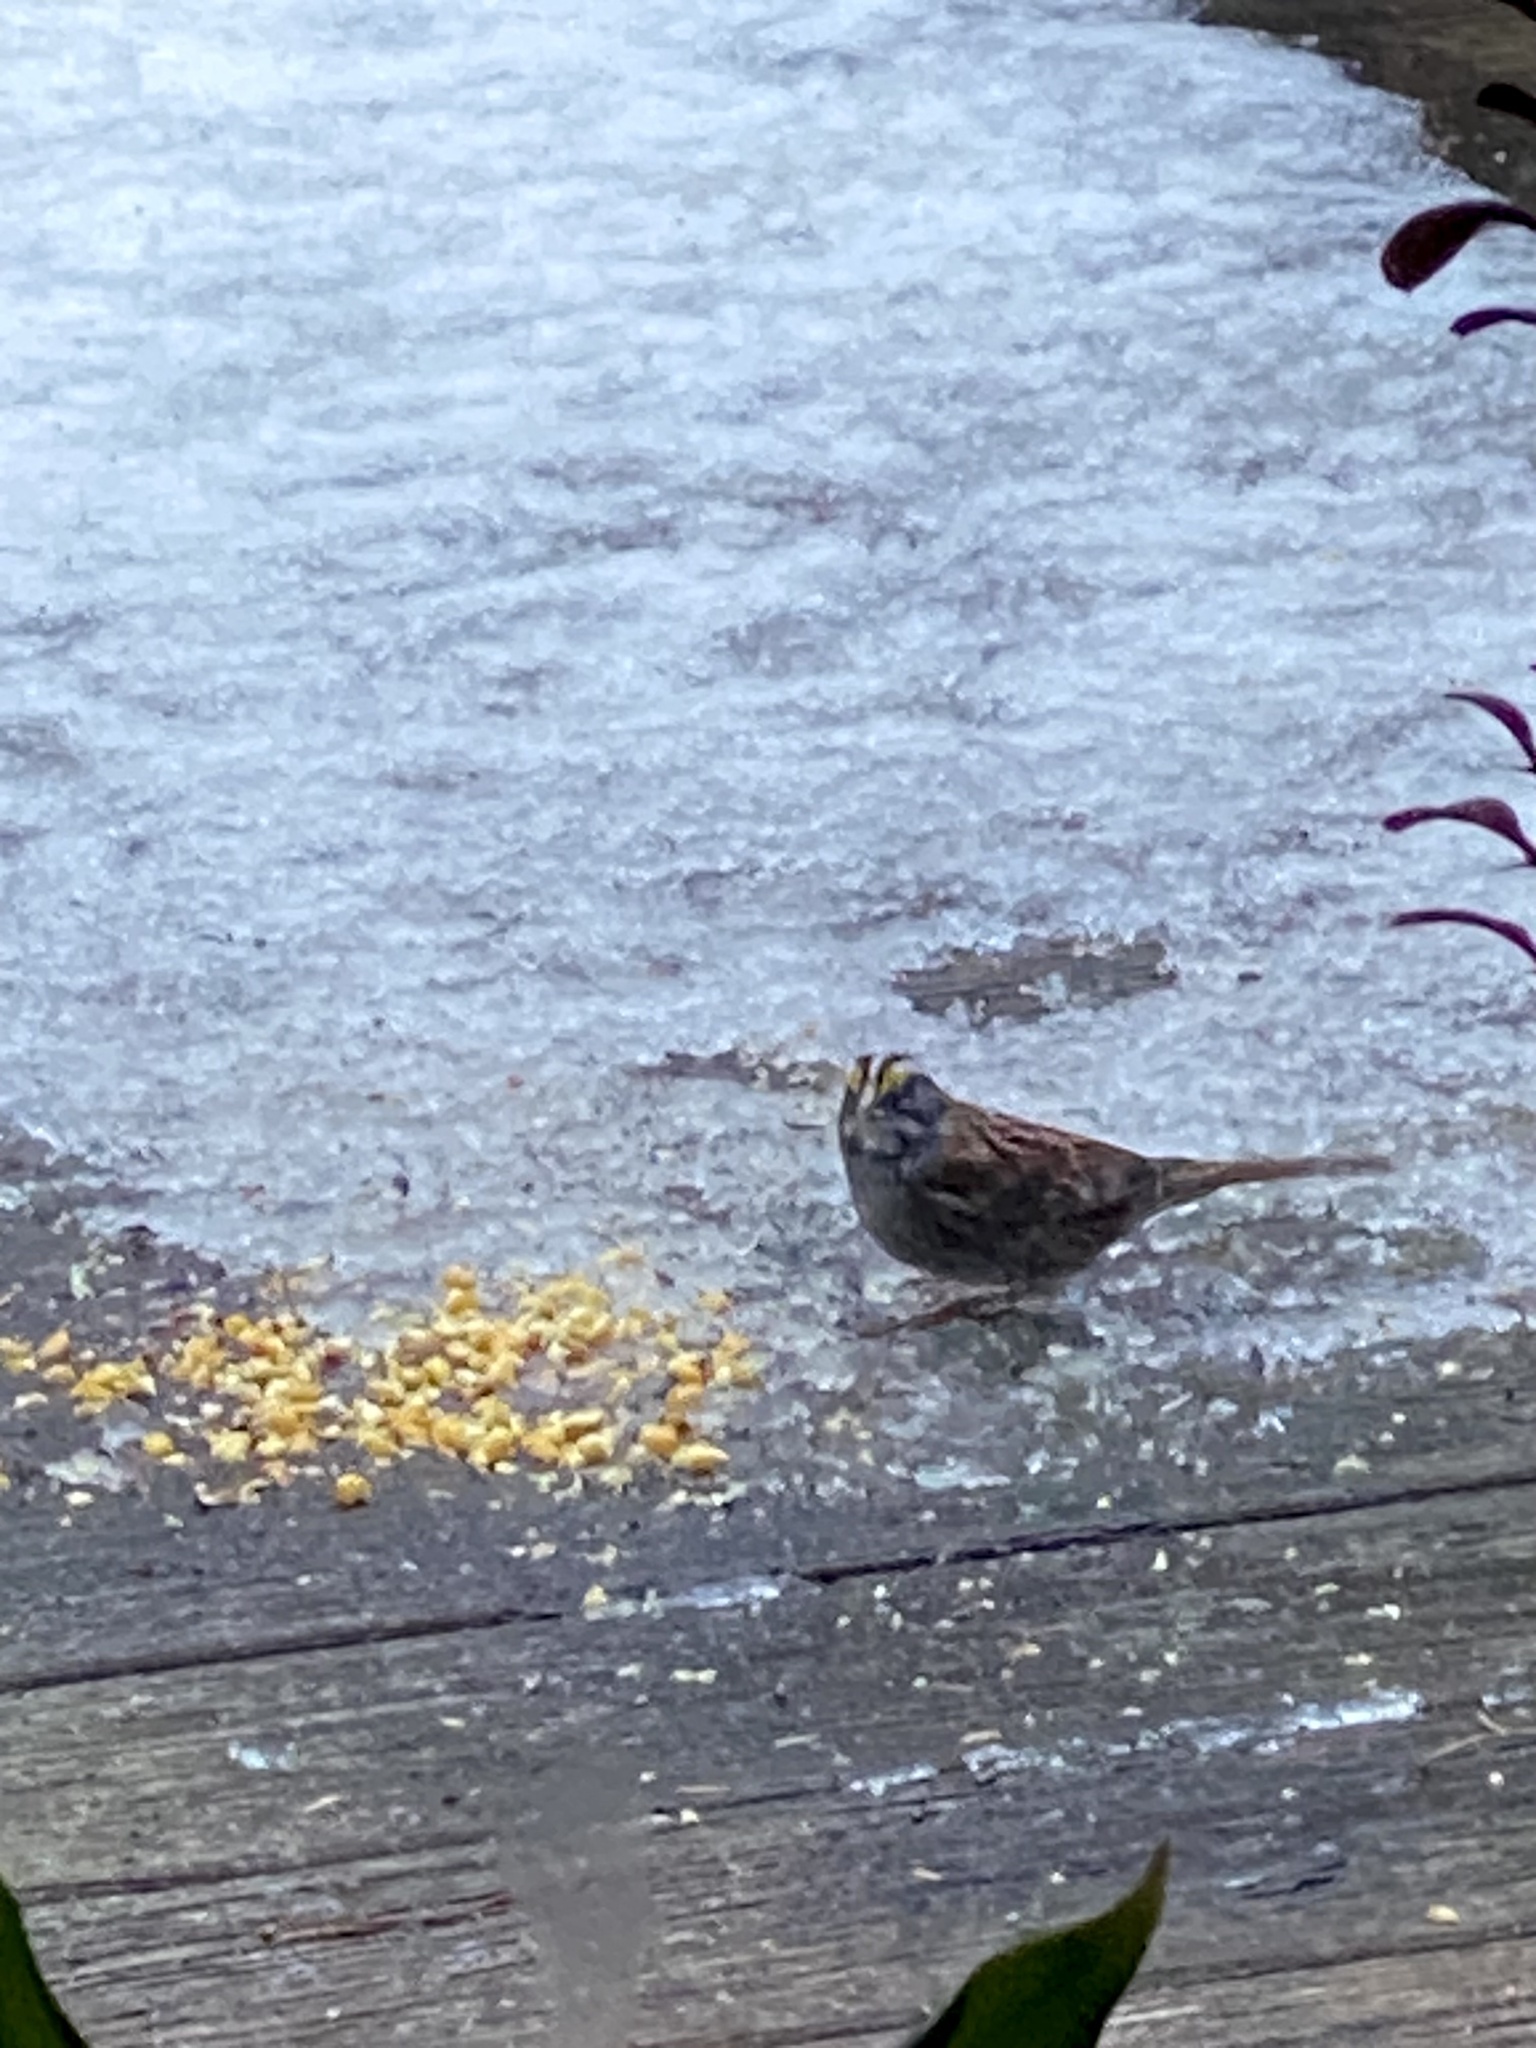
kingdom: Animalia
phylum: Chordata
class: Aves
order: Passeriformes
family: Passerellidae
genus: Zonotrichia
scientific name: Zonotrichia albicollis
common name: White-throated sparrow
